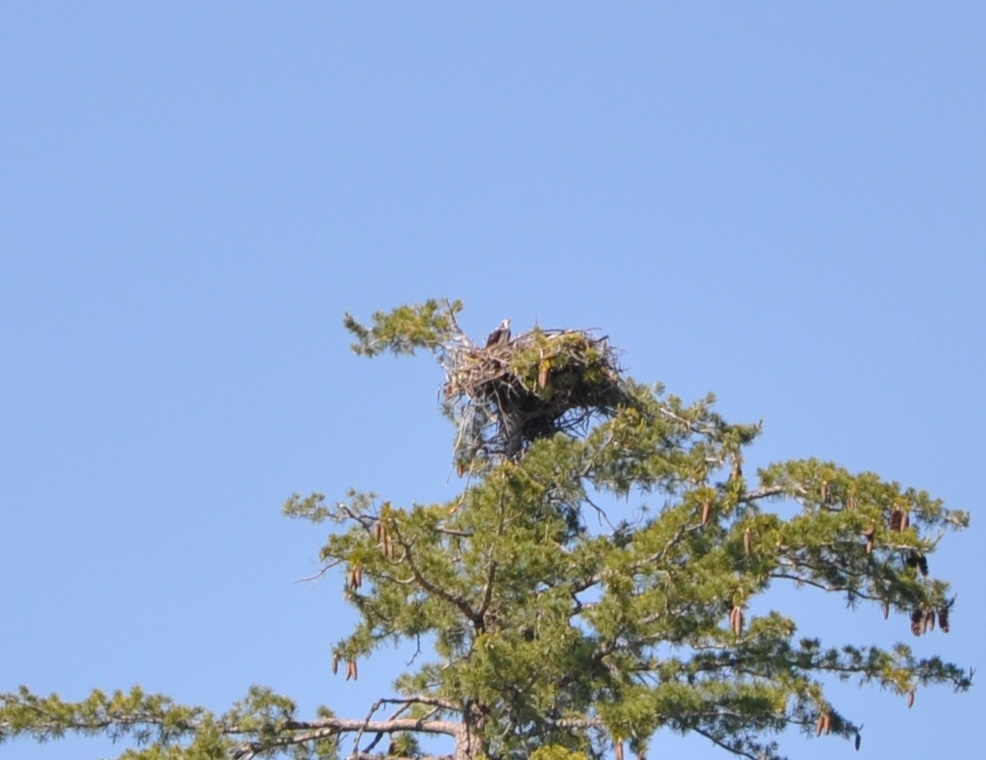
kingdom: Animalia
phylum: Chordata
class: Aves
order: Accipitriformes
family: Pandionidae
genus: Pandion
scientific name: Pandion haliaetus
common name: Osprey
